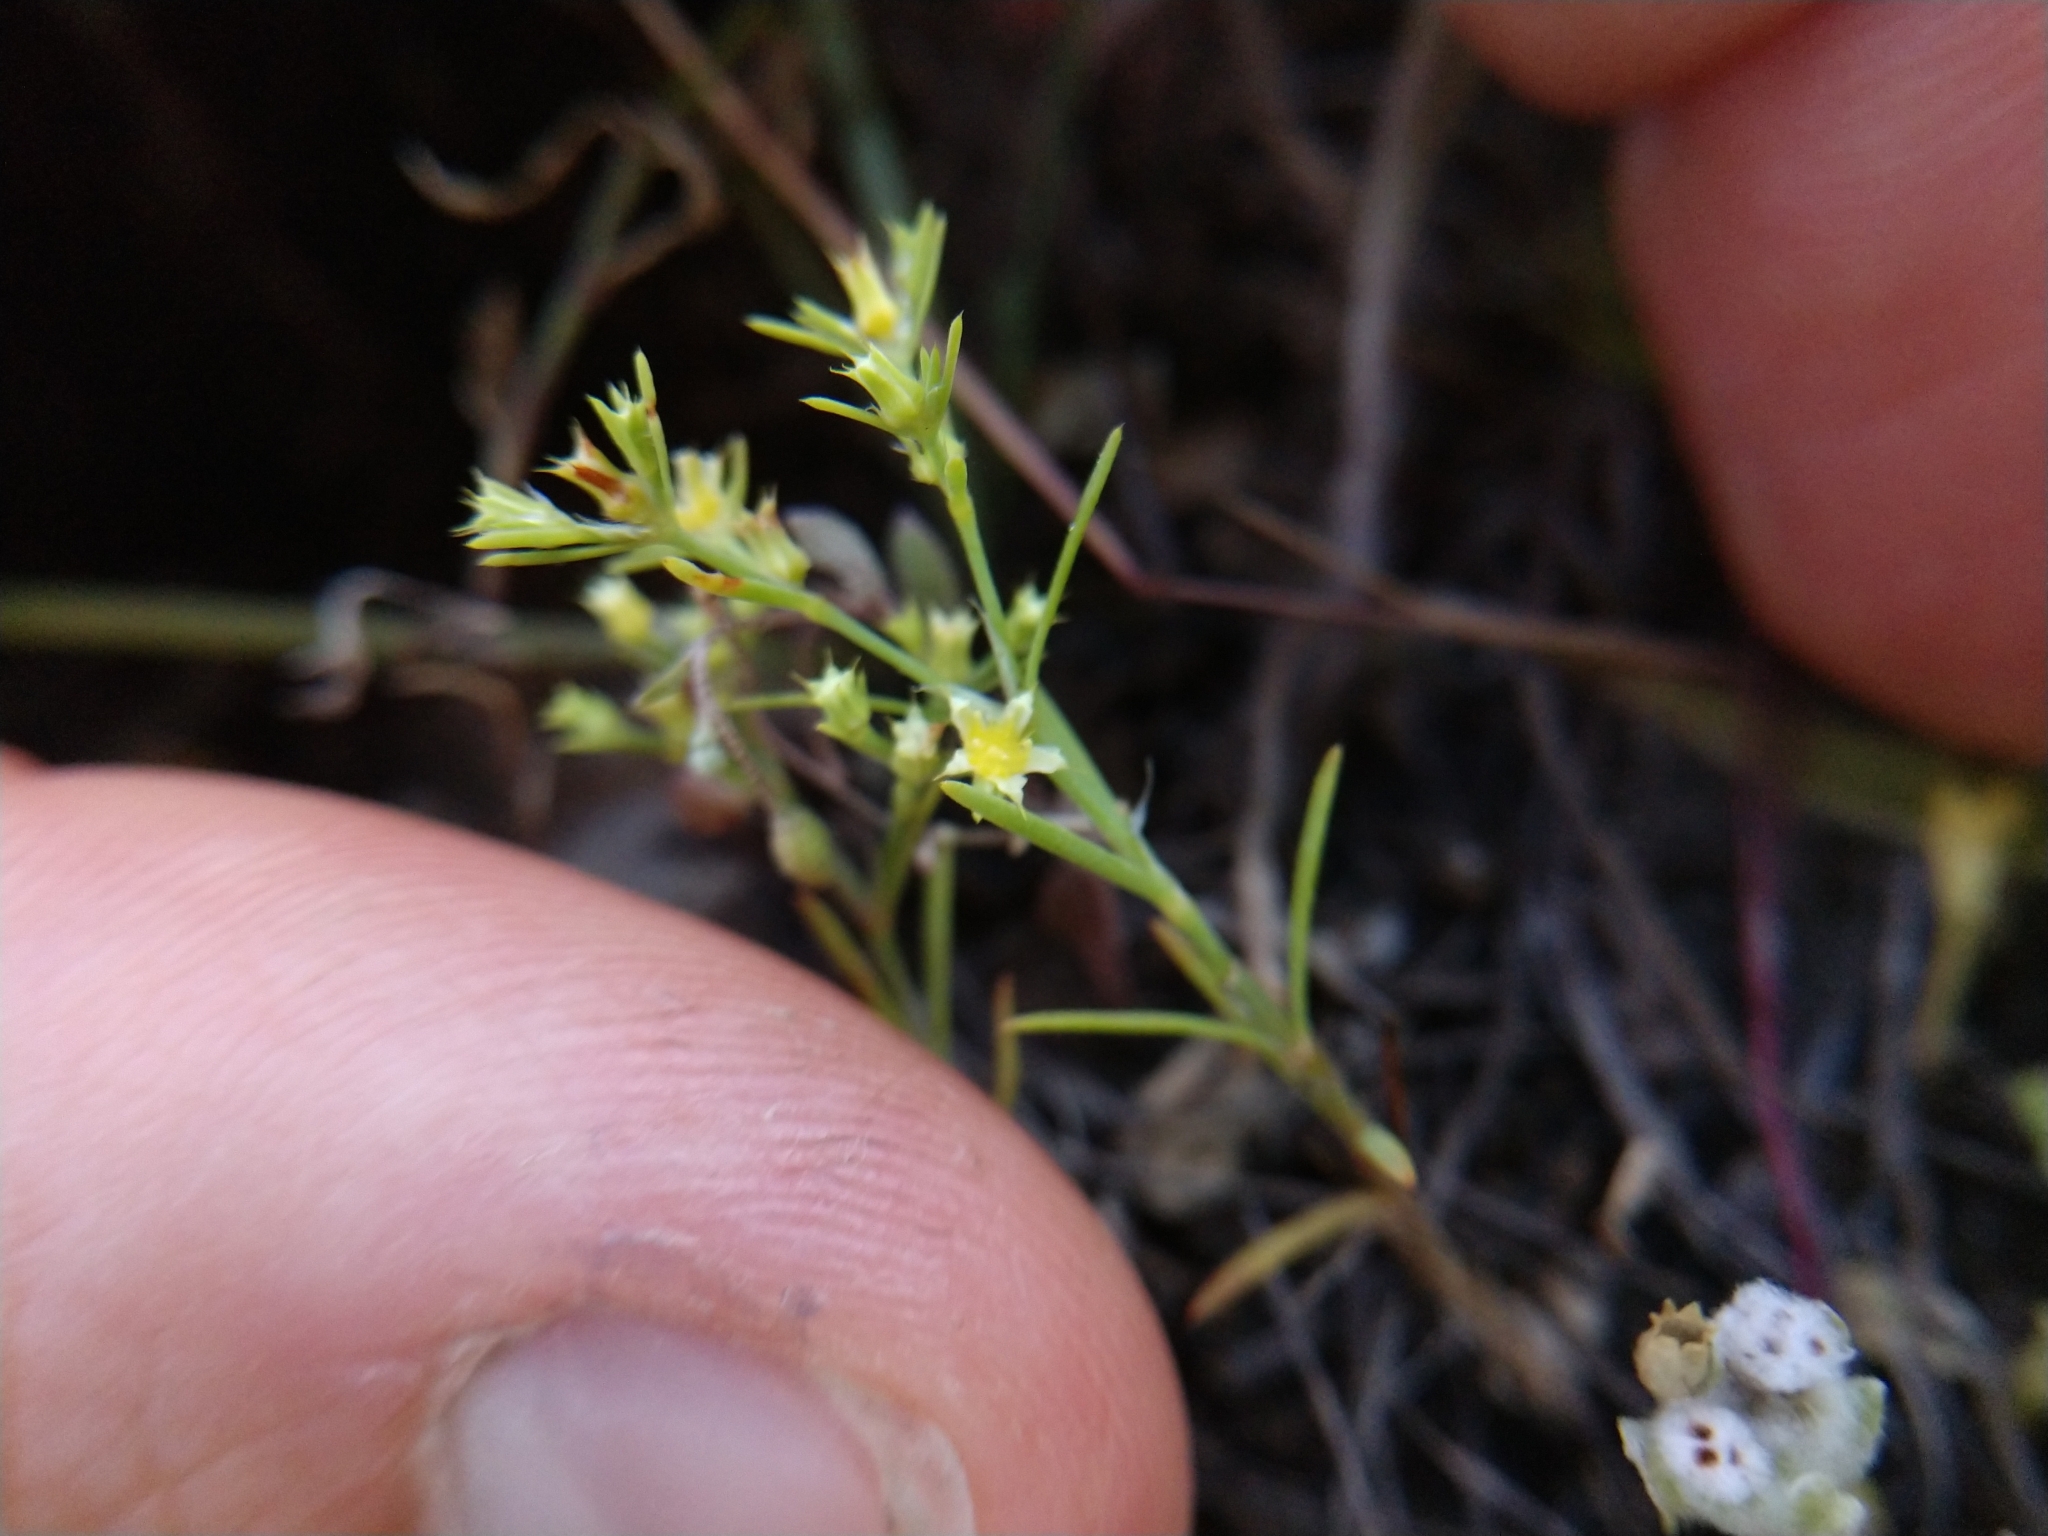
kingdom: Plantae
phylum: Tracheophyta
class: Magnoliopsida
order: Caryophyllales
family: Caryophyllaceae
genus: Paronychia
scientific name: Paronychia lindheimeri
